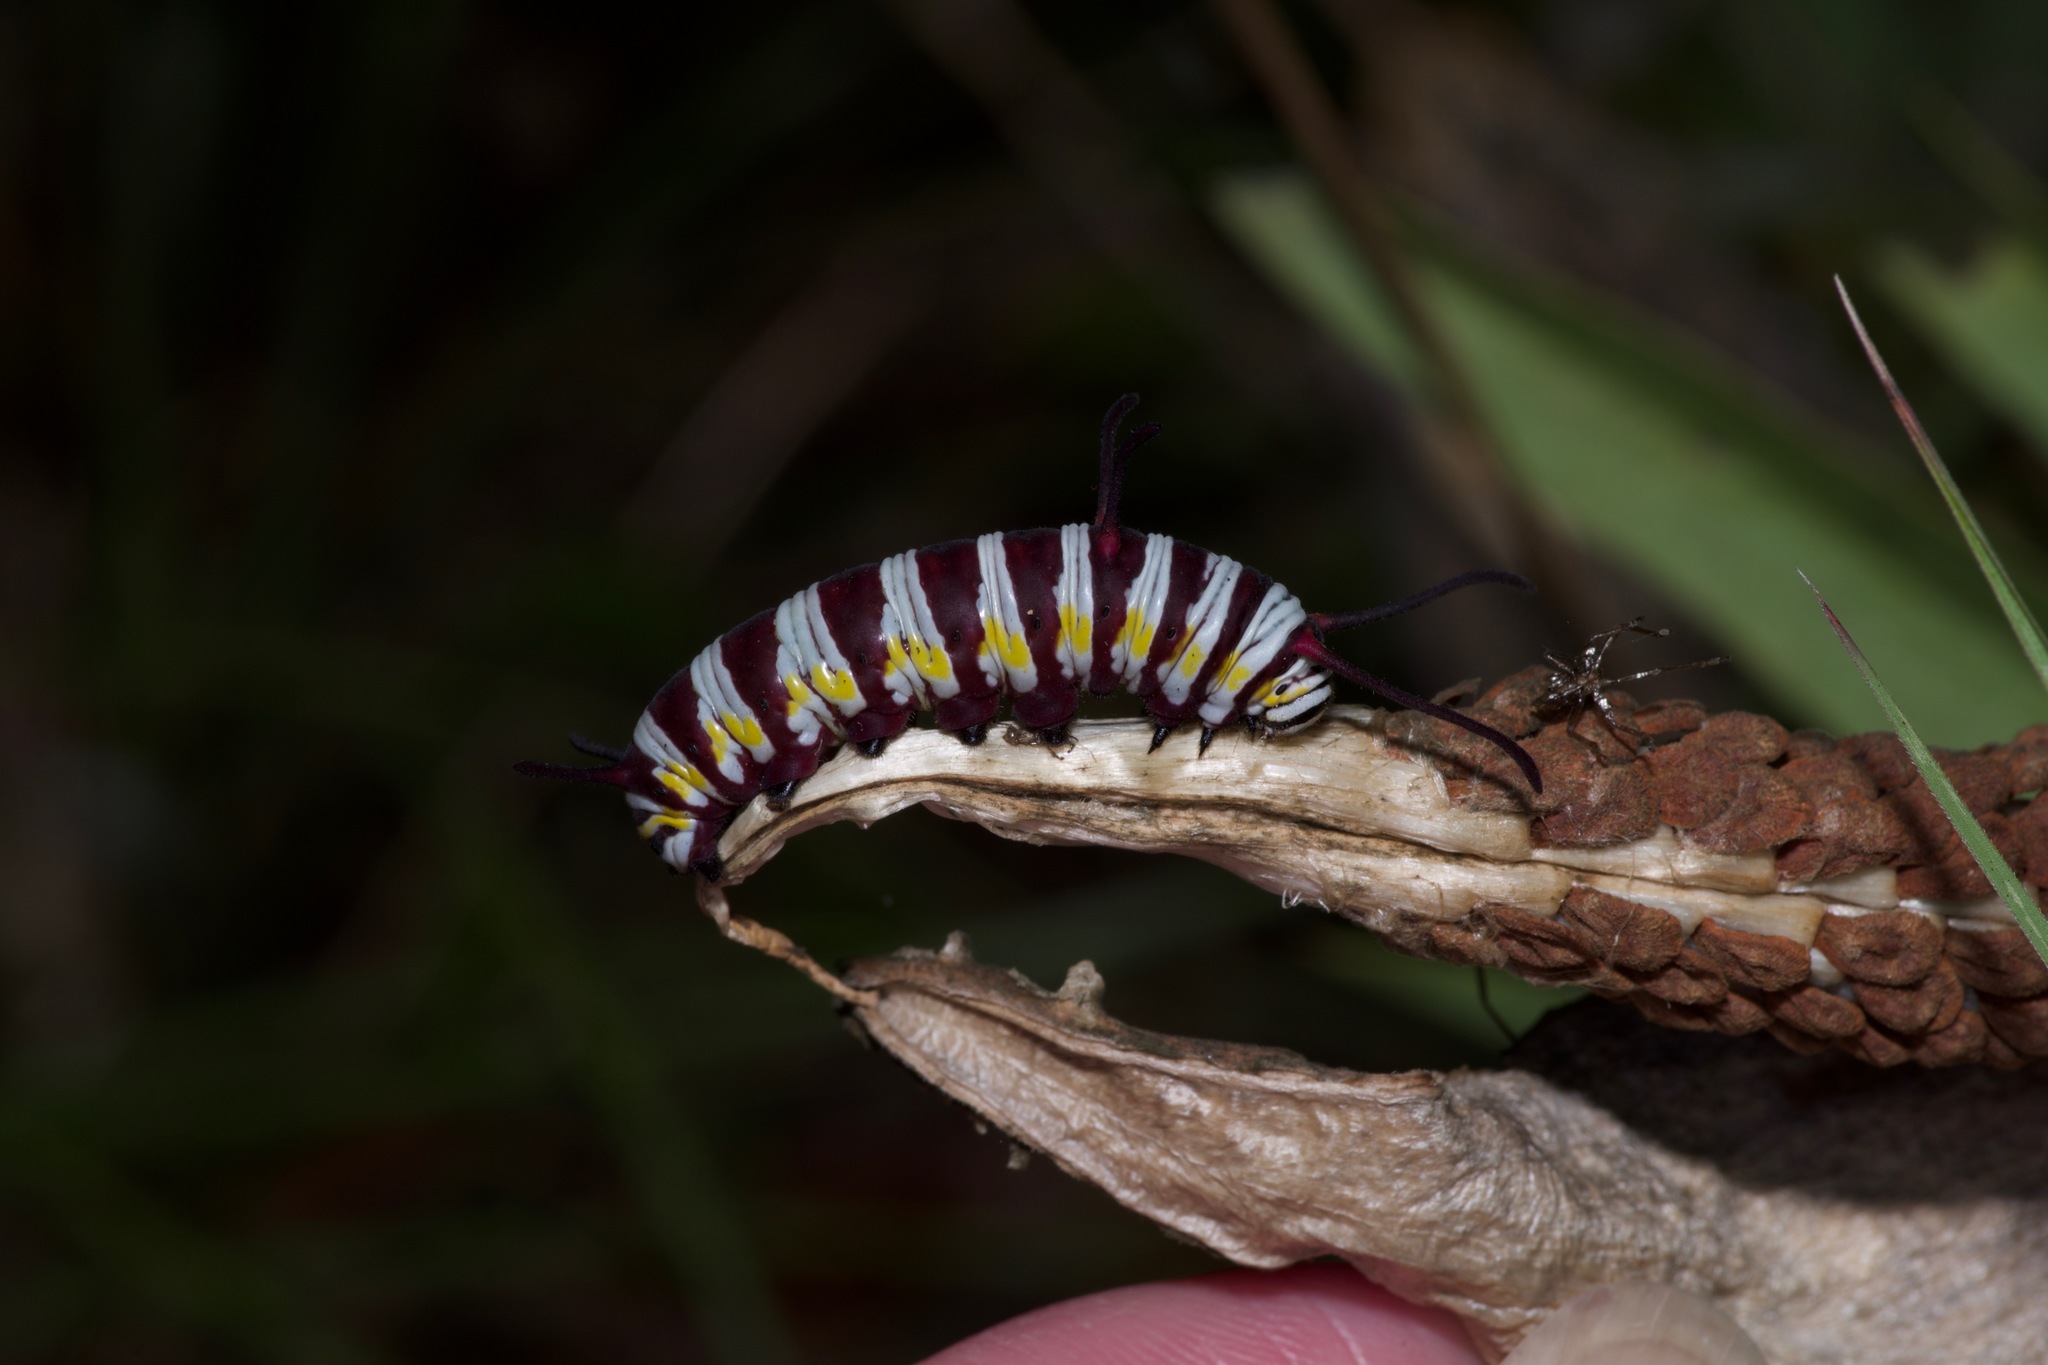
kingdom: Animalia
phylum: Arthropoda
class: Insecta
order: Lepidoptera
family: Nymphalidae
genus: Danaus
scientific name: Danaus gilippus
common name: Queen
